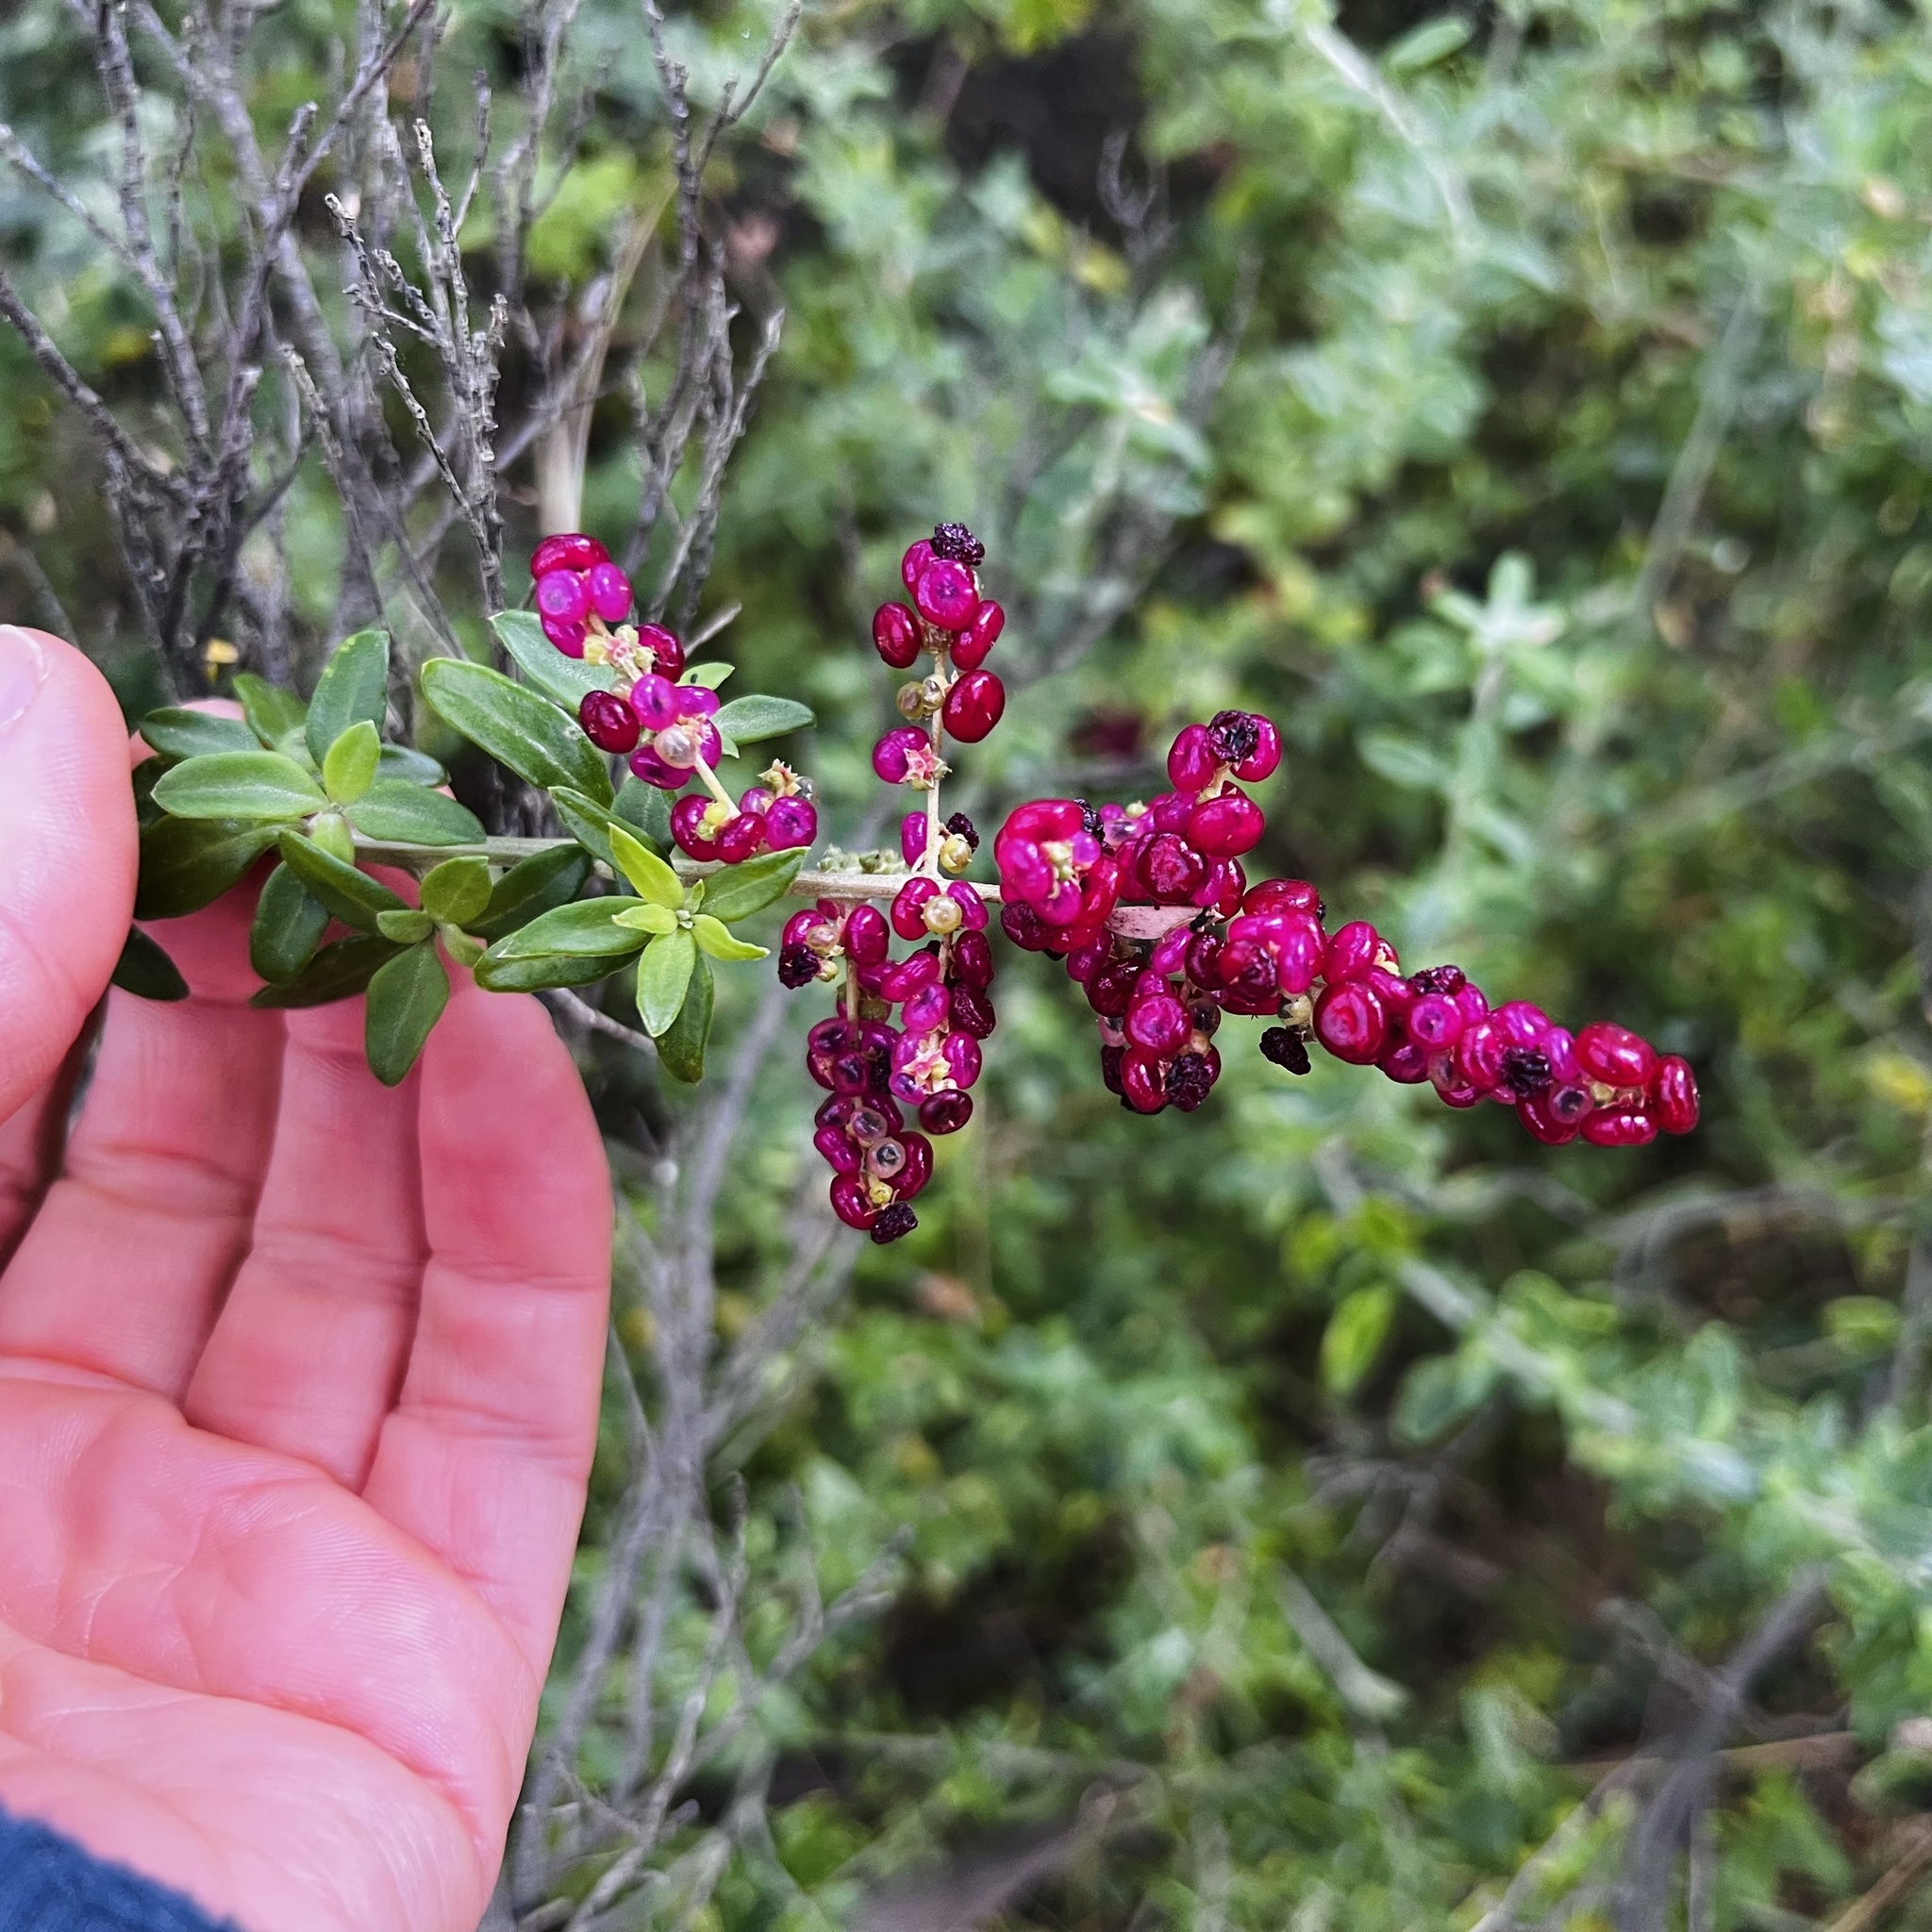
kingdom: Plantae
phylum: Tracheophyta
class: Magnoliopsida
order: Caryophyllales
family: Amaranthaceae
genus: Chenopodium
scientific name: Chenopodium candolleanum
